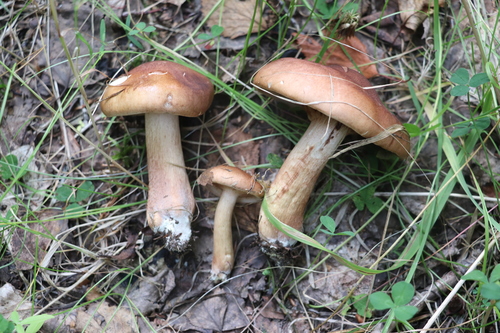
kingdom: Fungi
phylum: Basidiomycota
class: Agaricomycetes
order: Agaricales
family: Tricholomataceae
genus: Tricholoma
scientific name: Tricholoma fulvum
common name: Birch knight
